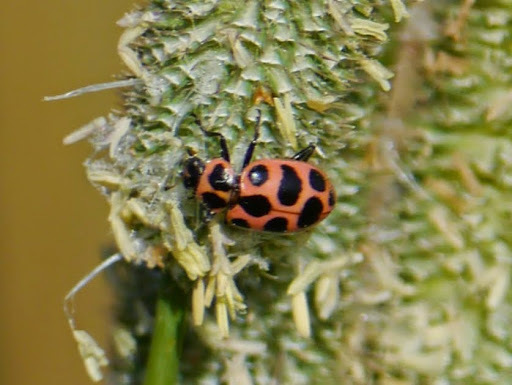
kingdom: Animalia
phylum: Arthropoda
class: Insecta
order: Coleoptera
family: Coccinellidae
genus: Coleomegilla
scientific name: Coleomegilla maculata
